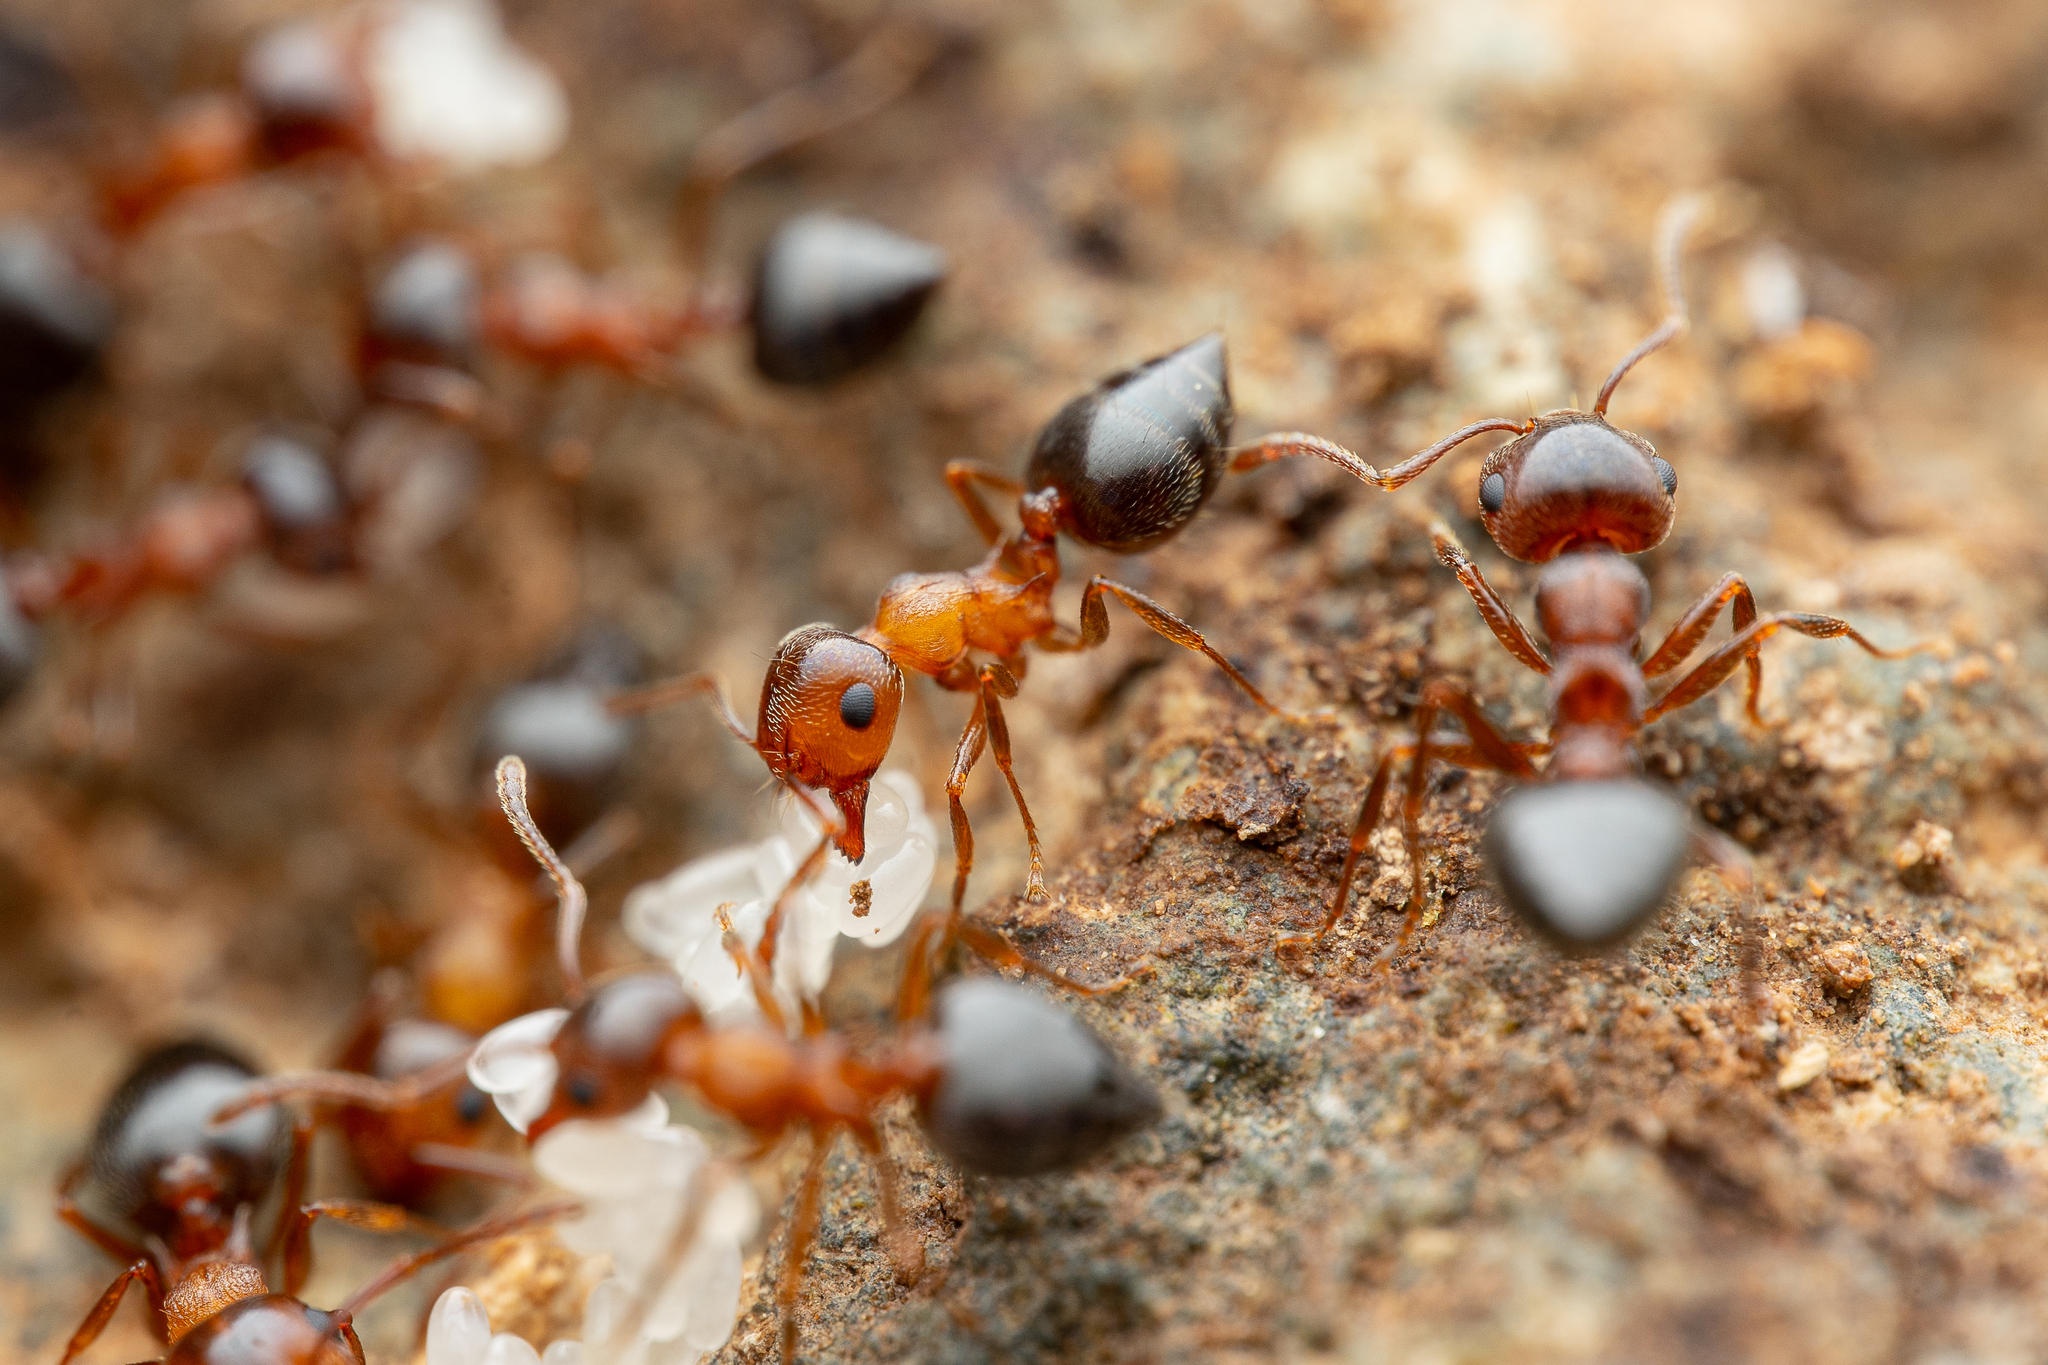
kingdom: Animalia
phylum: Arthropoda
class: Insecta
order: Hymenoptera
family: Formicidae
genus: Crematogaster
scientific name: Crematogaster opuntiae
